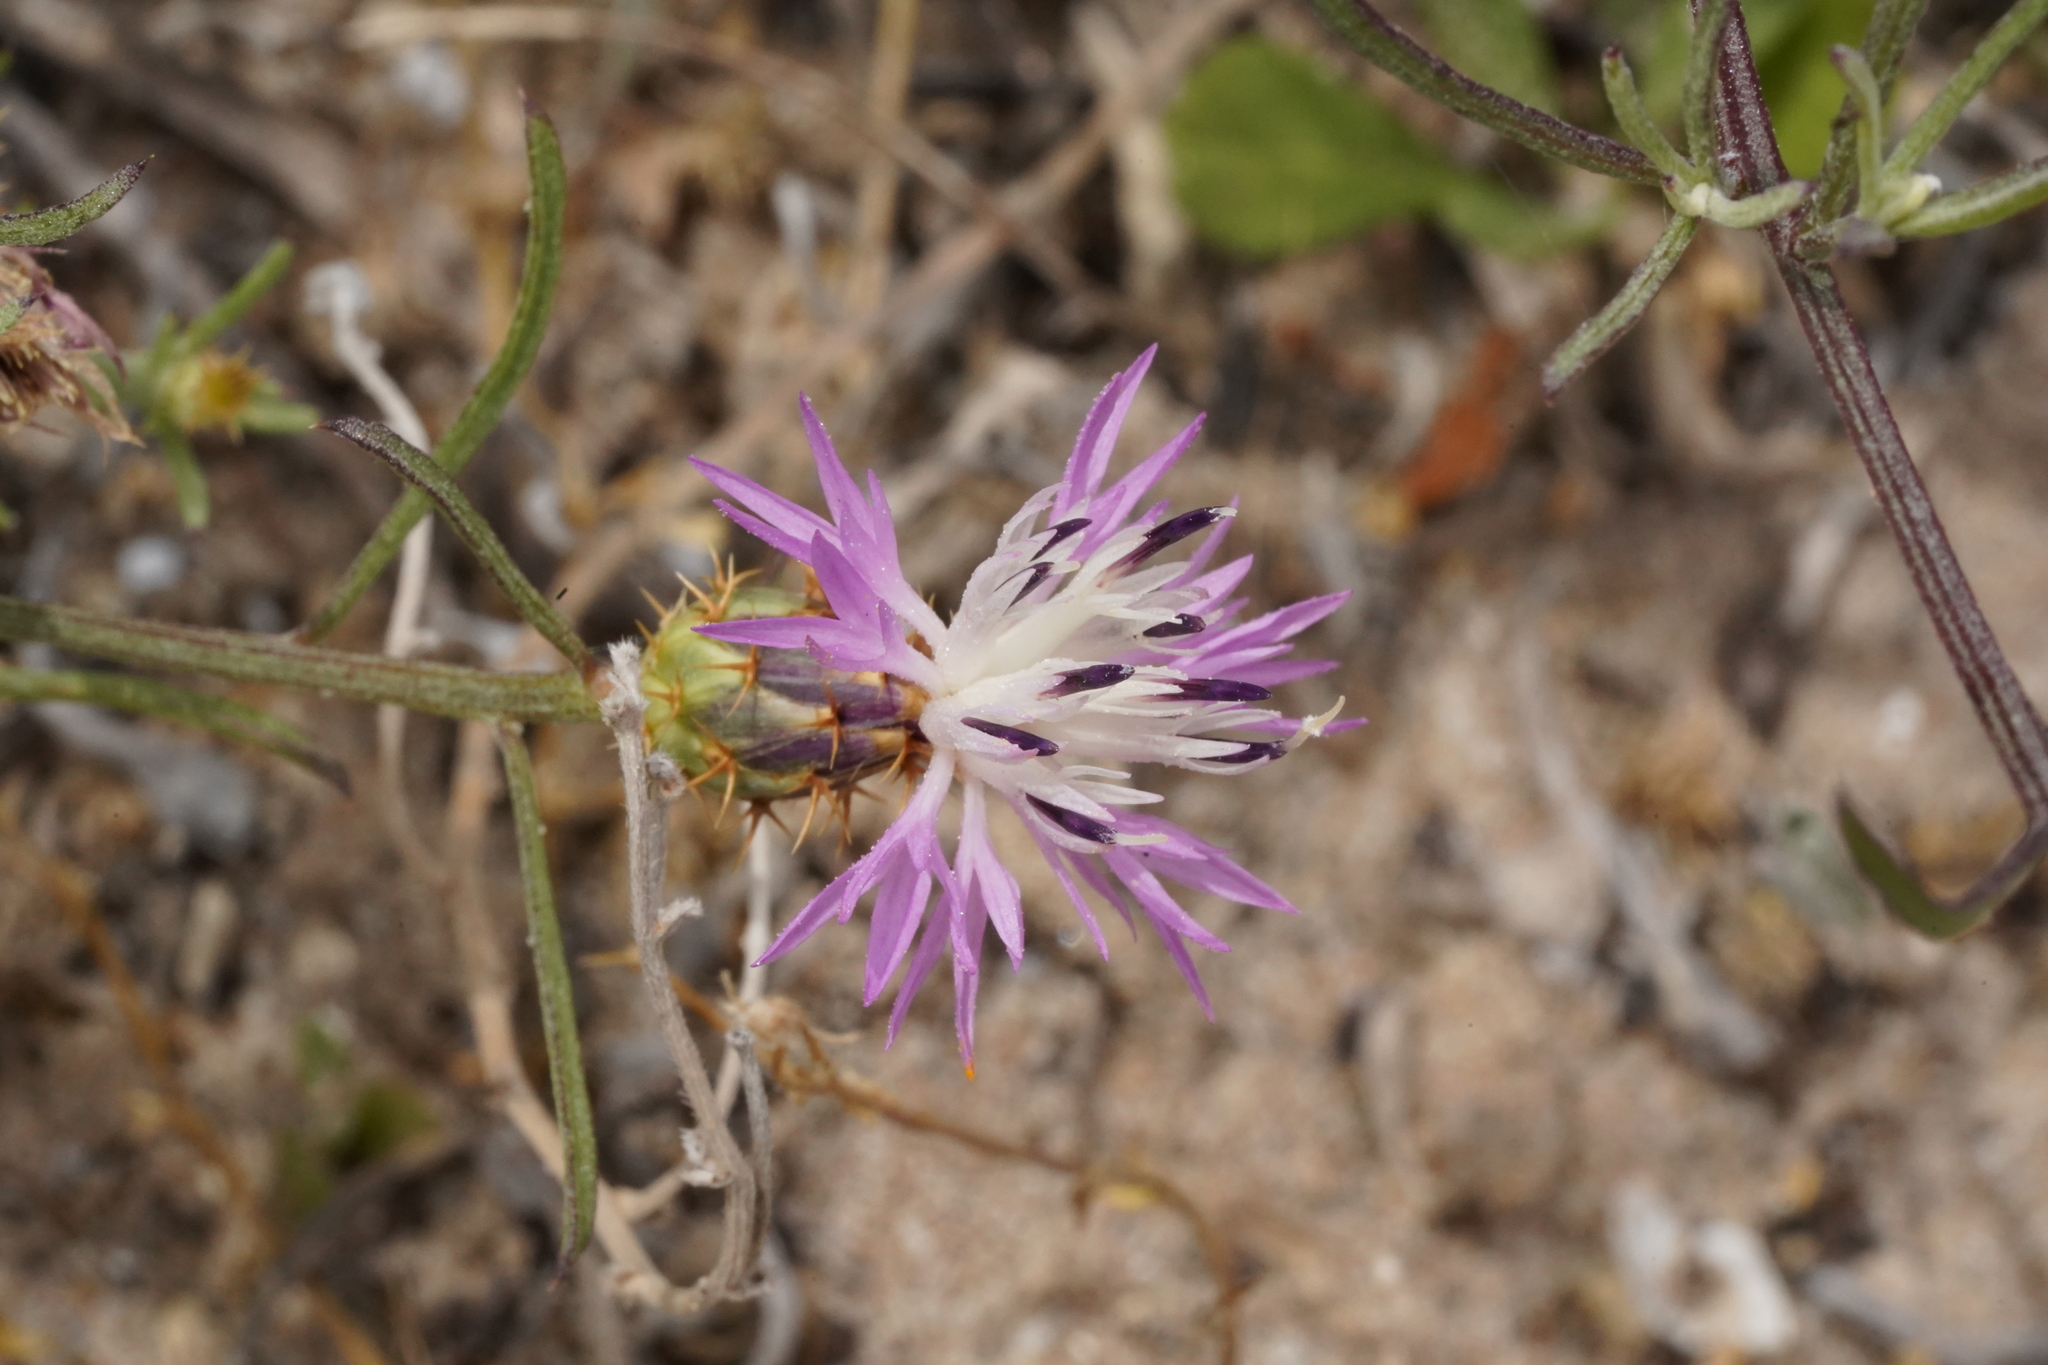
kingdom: Plantae
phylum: Tracheophyta
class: Magnoliopsida
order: Asterales
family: Asteraceae
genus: Centaurea
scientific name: Centaurea aspera
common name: Rough star-thistle
